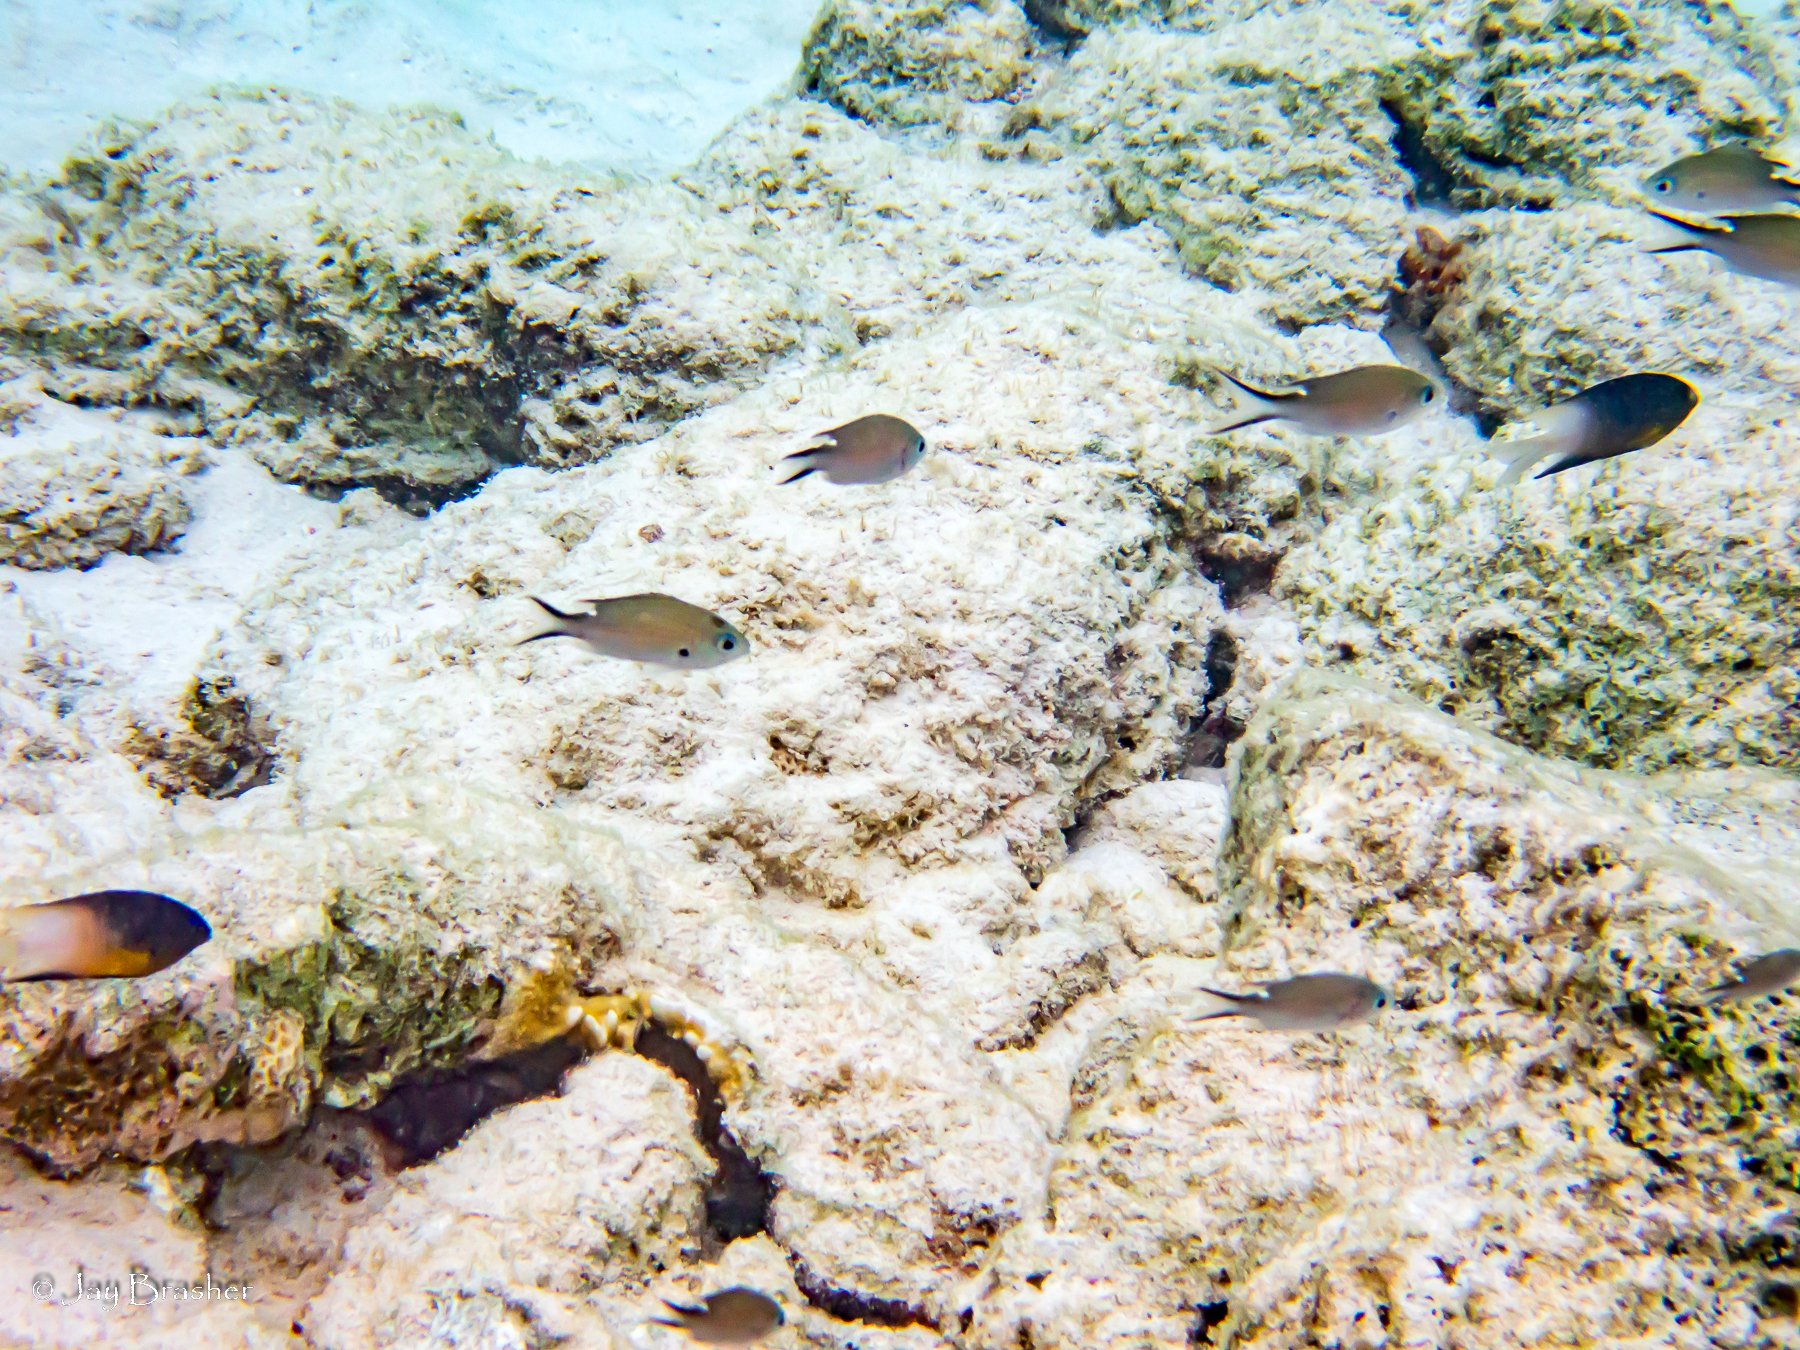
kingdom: Animalia
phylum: Chordata
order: Perciformes
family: Pomacentridae
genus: Stegastes
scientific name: Stegastes partitus
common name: Bicolor damselfish
